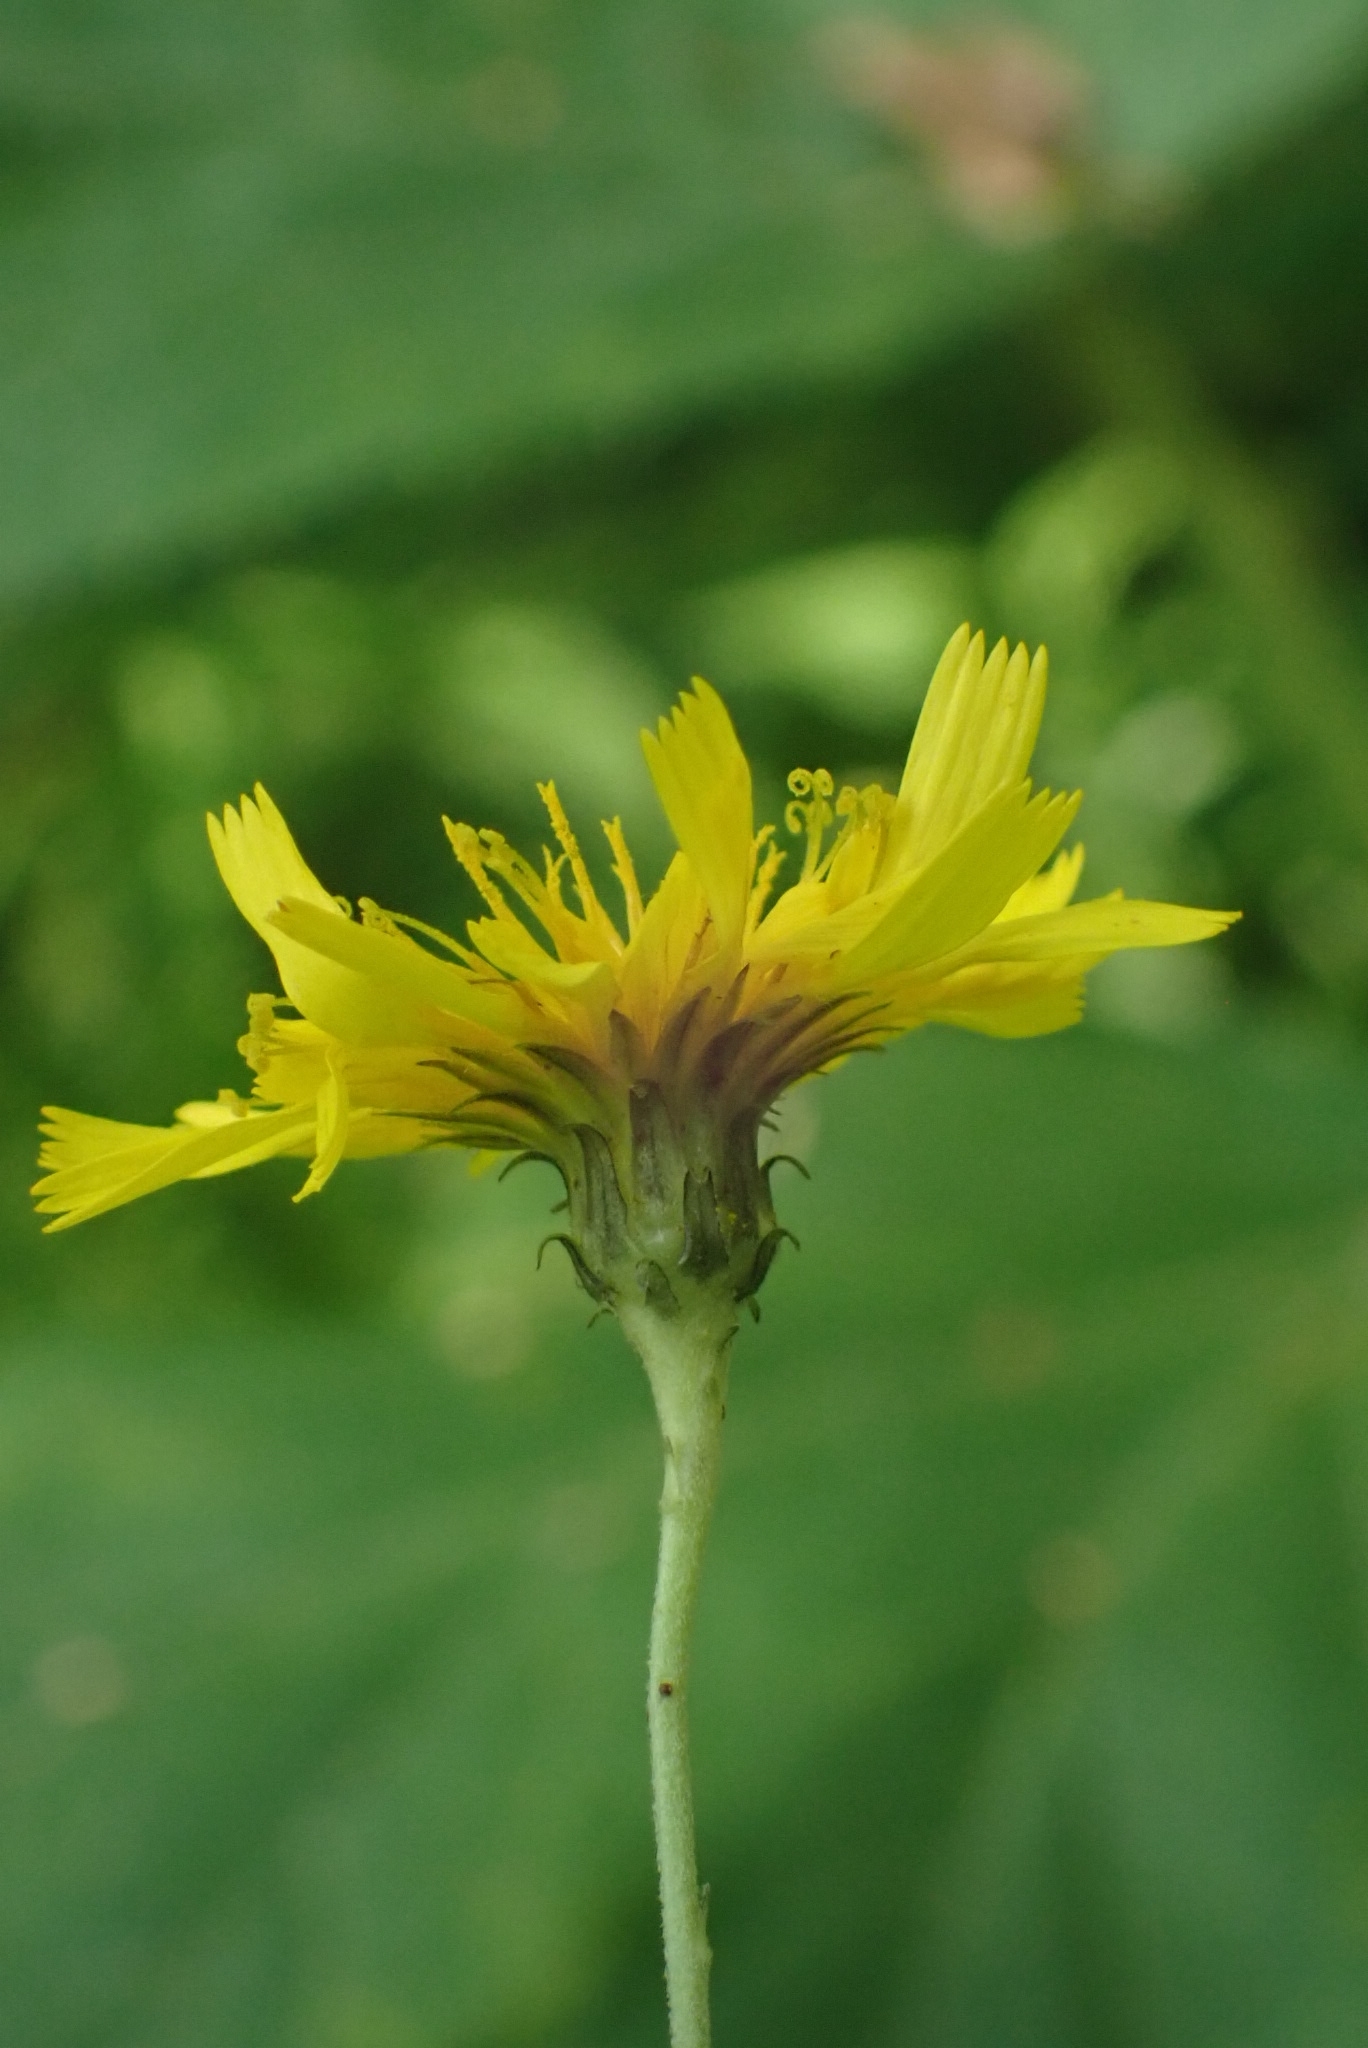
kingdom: Plantae
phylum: Tracheophyta
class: Magnoliopsida
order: Asterales
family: Asteraceae
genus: Hieracium
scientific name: Hieracium umbellatum
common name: Northern hawkweed
